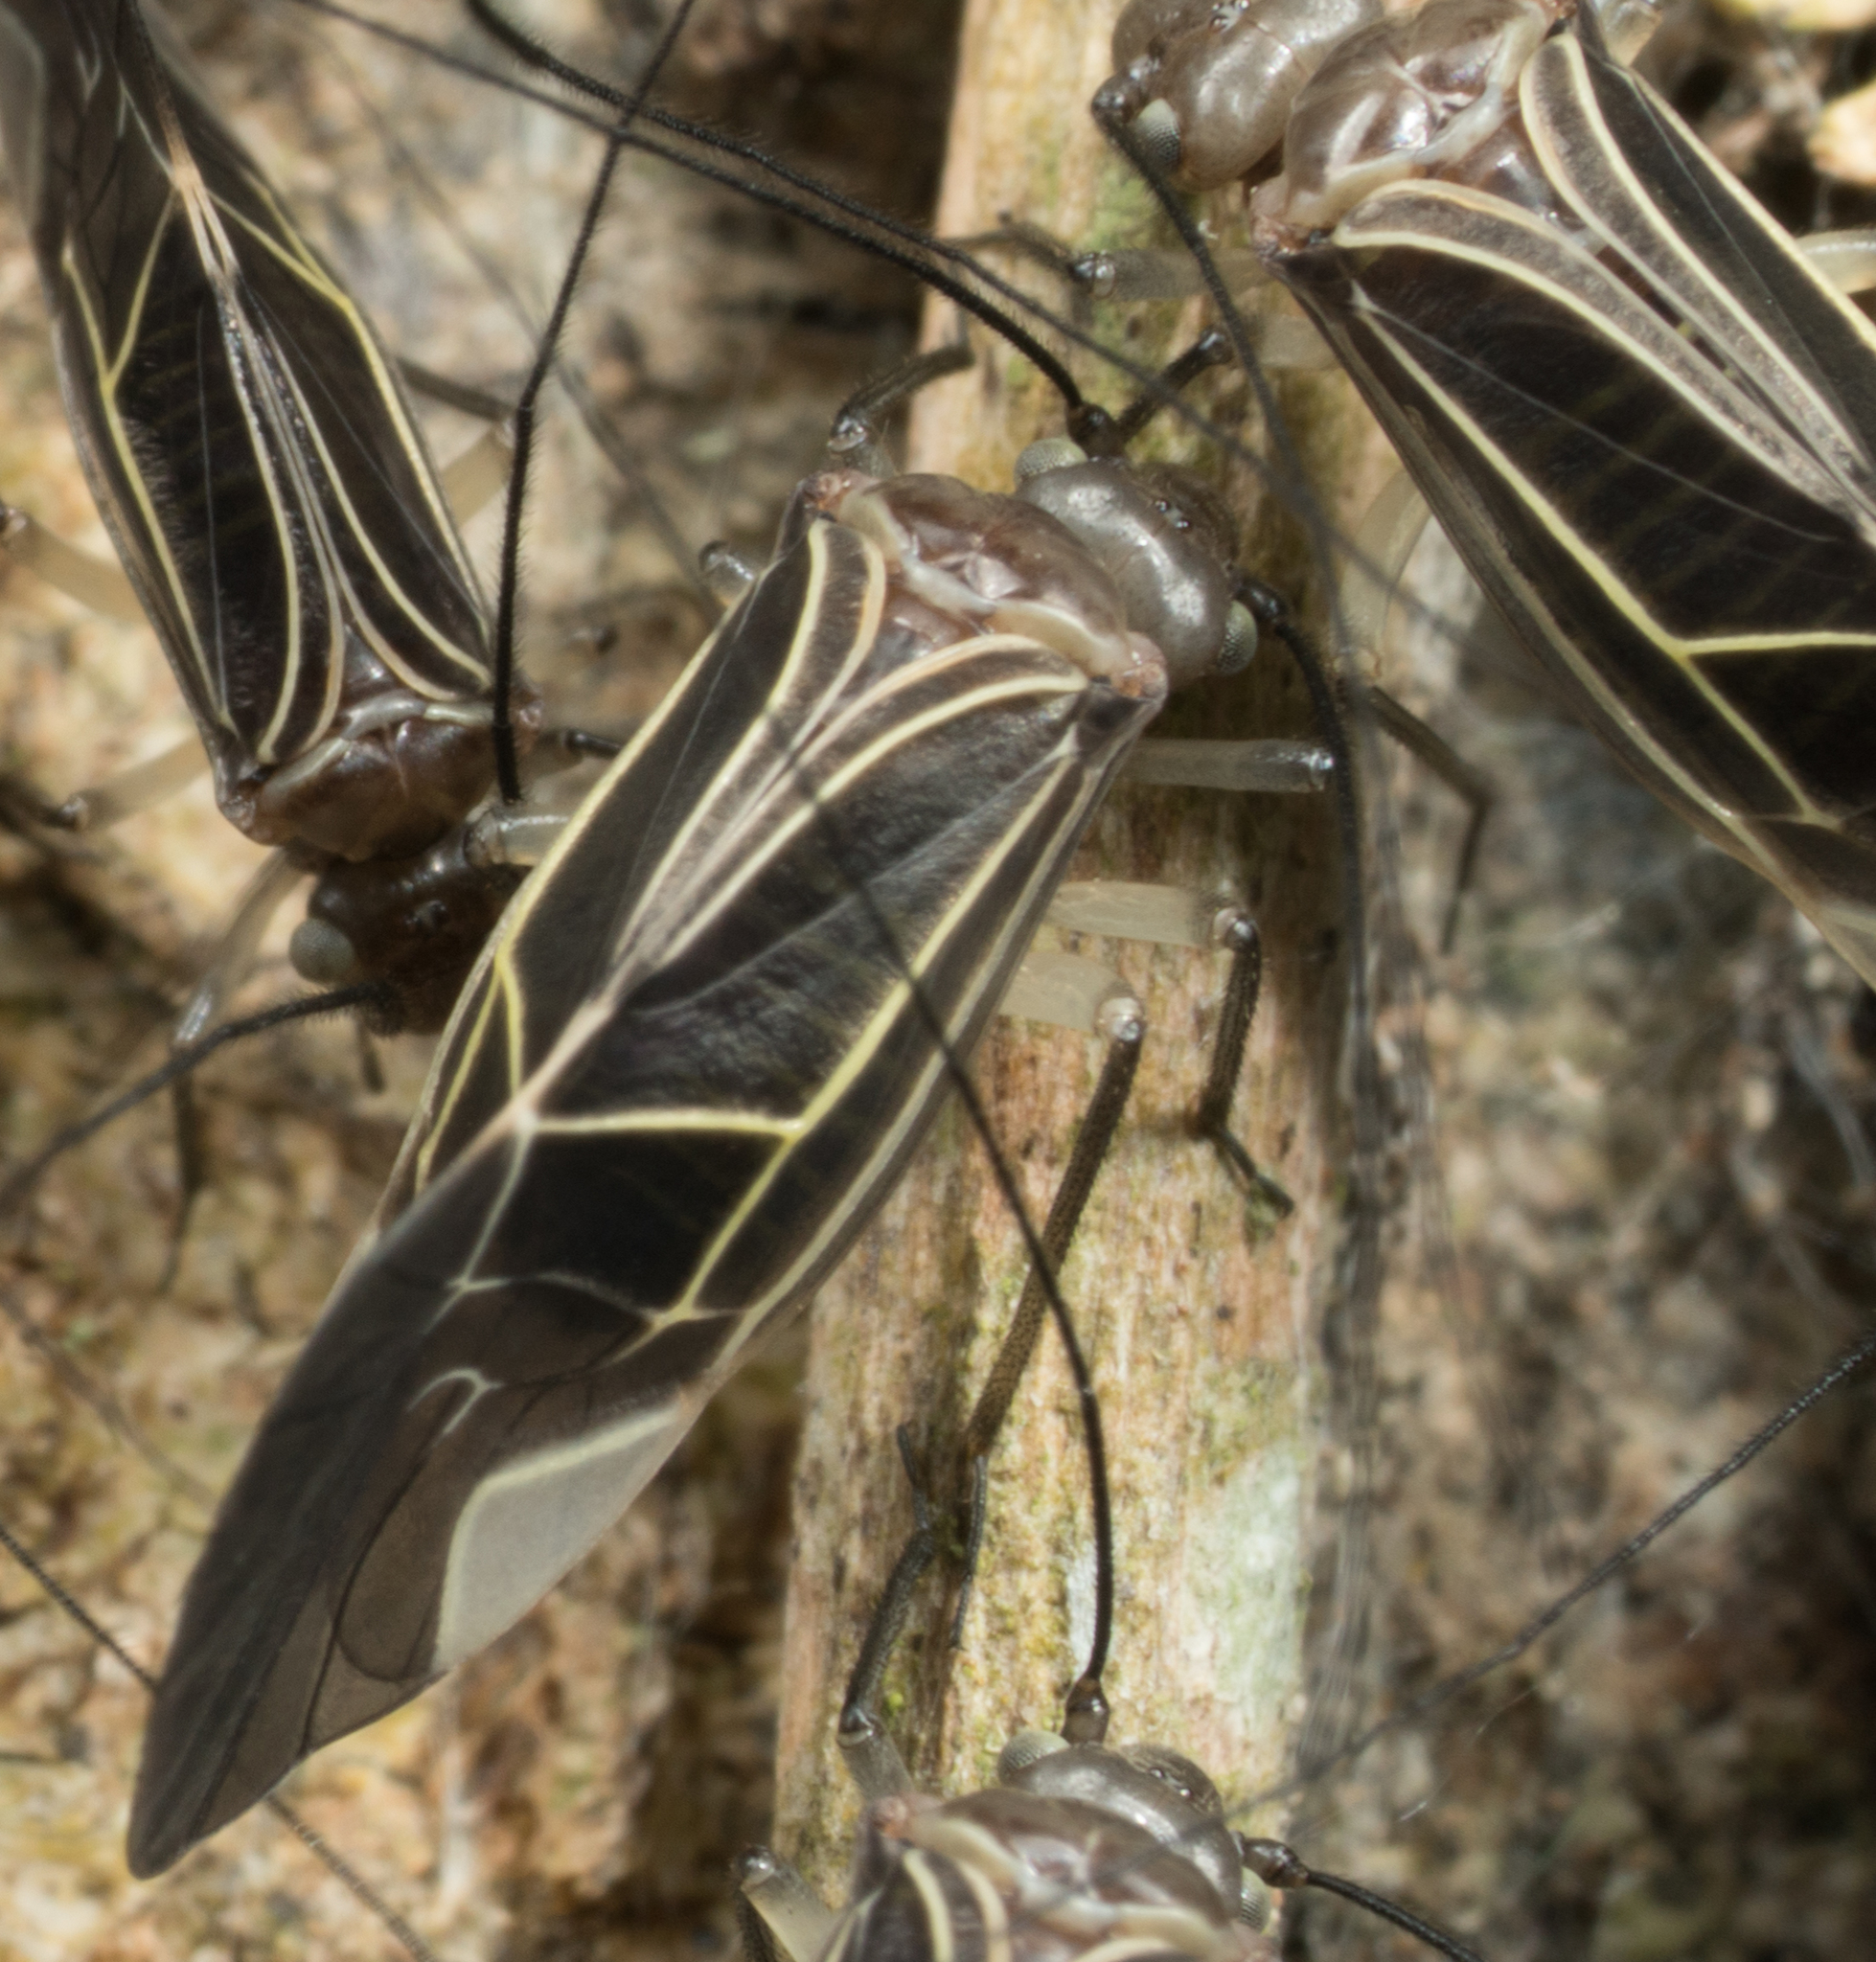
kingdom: Animalia
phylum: Arthropoda
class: Insecta
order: Psocodea
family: Psocidae
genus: Cerastipsocus
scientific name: Cerastipsocus venosus
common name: Tree cattle
